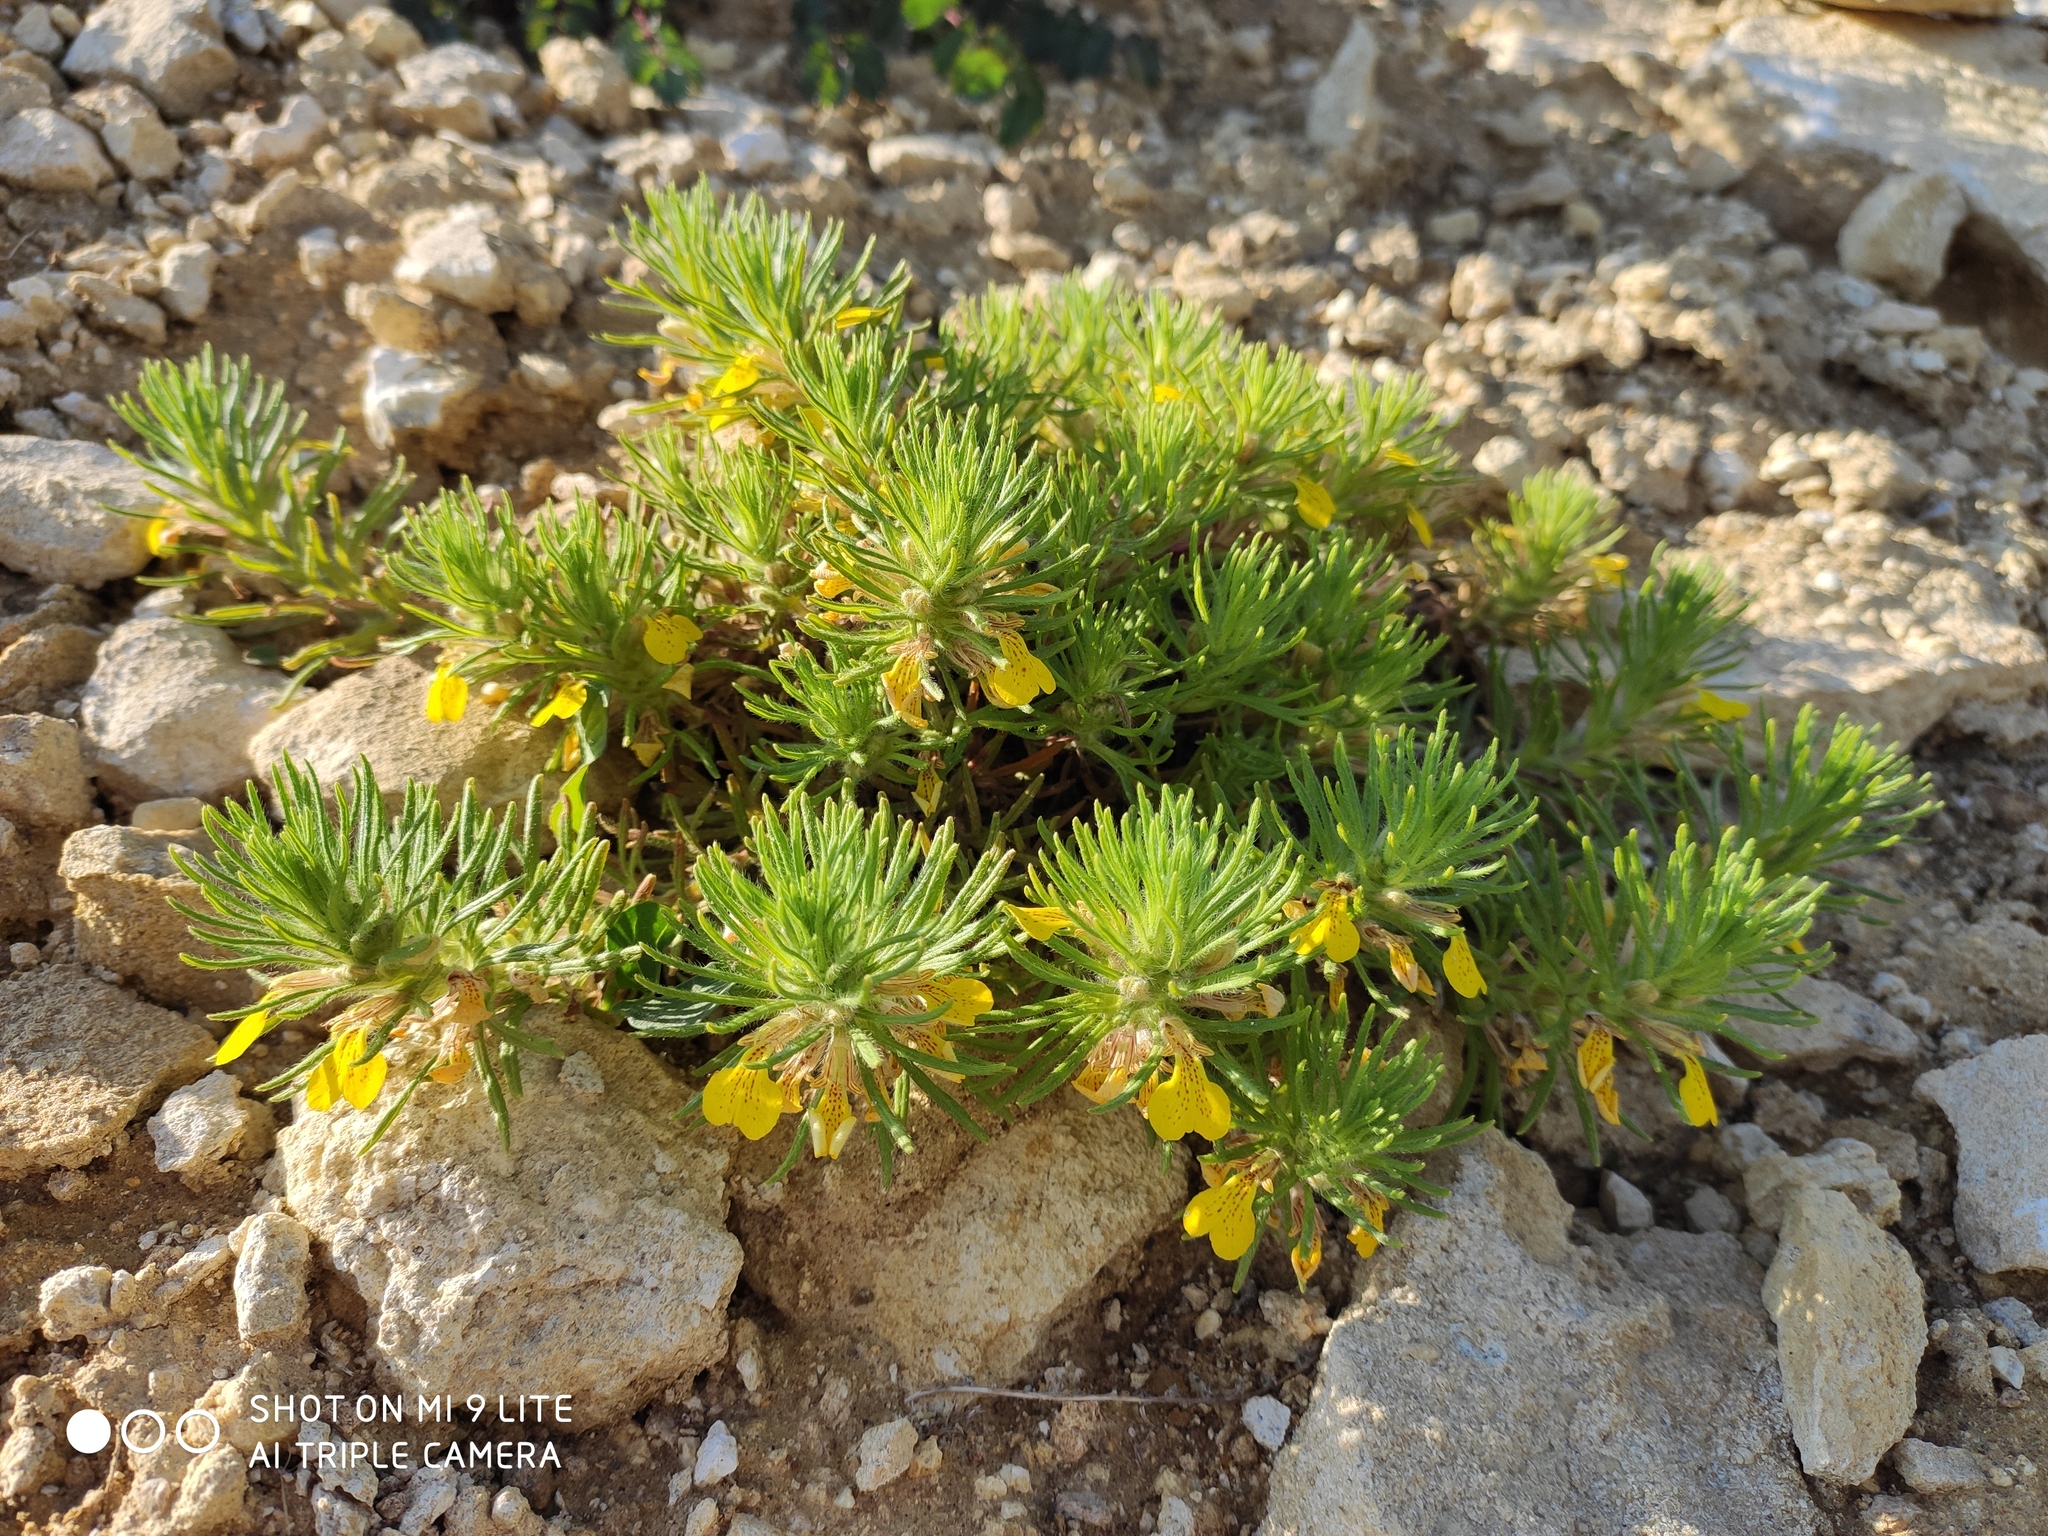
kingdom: Plantae
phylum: Tracheophyta
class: Magnoliopsida
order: Lamiales
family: Lamiaceae
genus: Ajuga
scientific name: Ajuga chamaepitys
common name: Ground-pine
